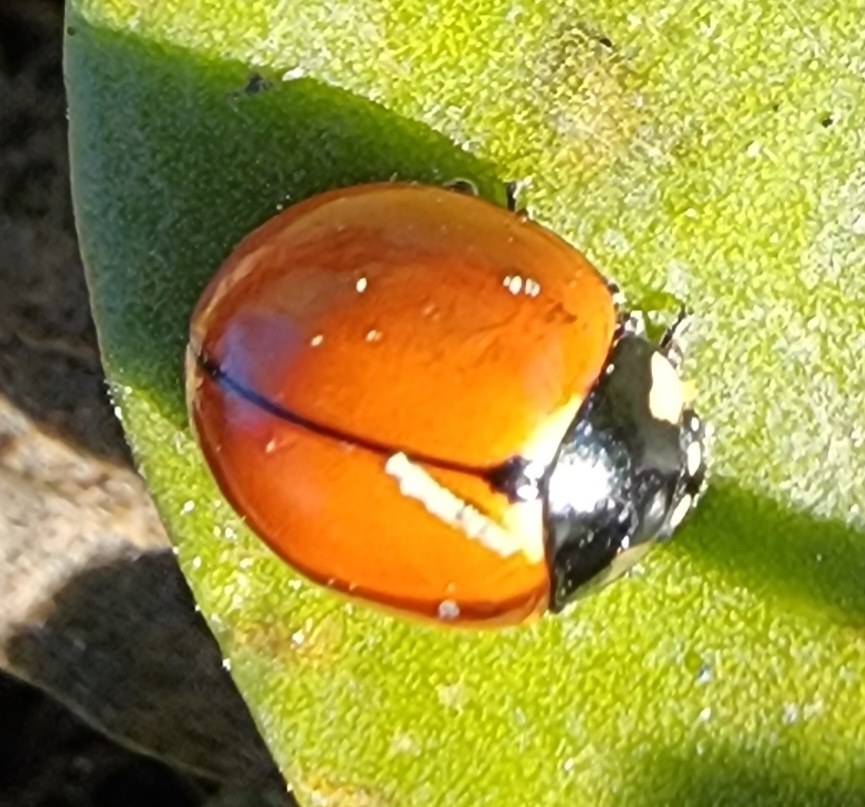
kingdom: Animalia
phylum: Arthropoda
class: Insecta
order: Coleoptera
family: Coccinellidae
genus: Coccinella
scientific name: Coccinella californica
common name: Lady beetle
